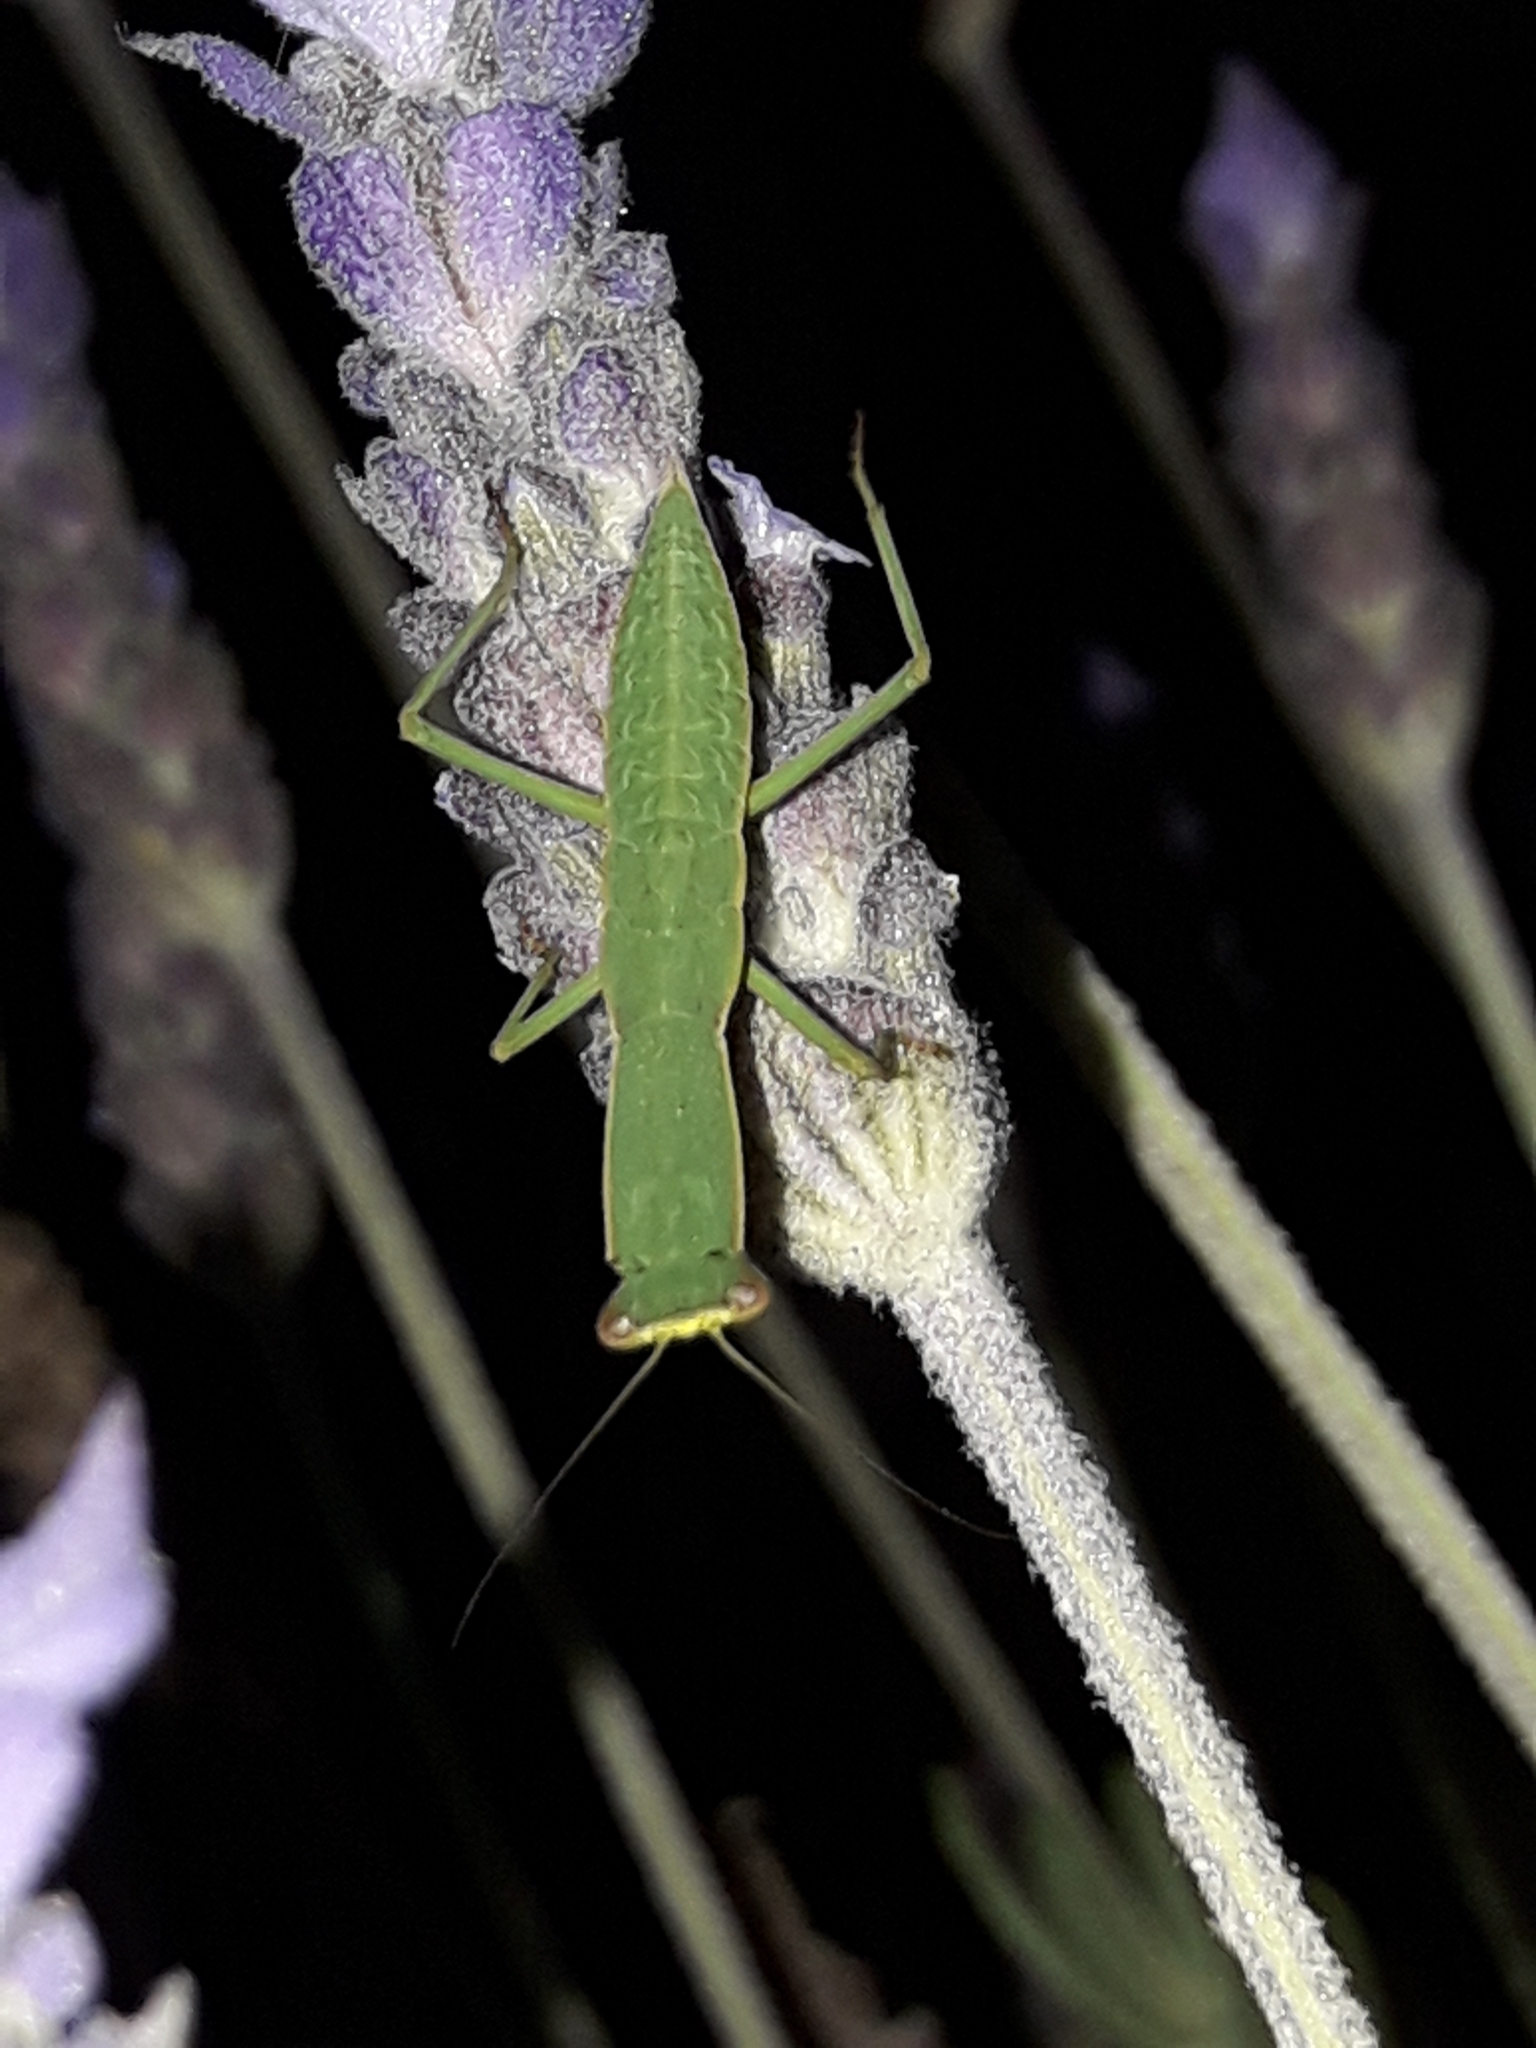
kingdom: Animalia
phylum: Arthropoda
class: Insecta
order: Mantodea
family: Mantidae
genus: Orthodera
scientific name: Orthodera novaezealandiae
